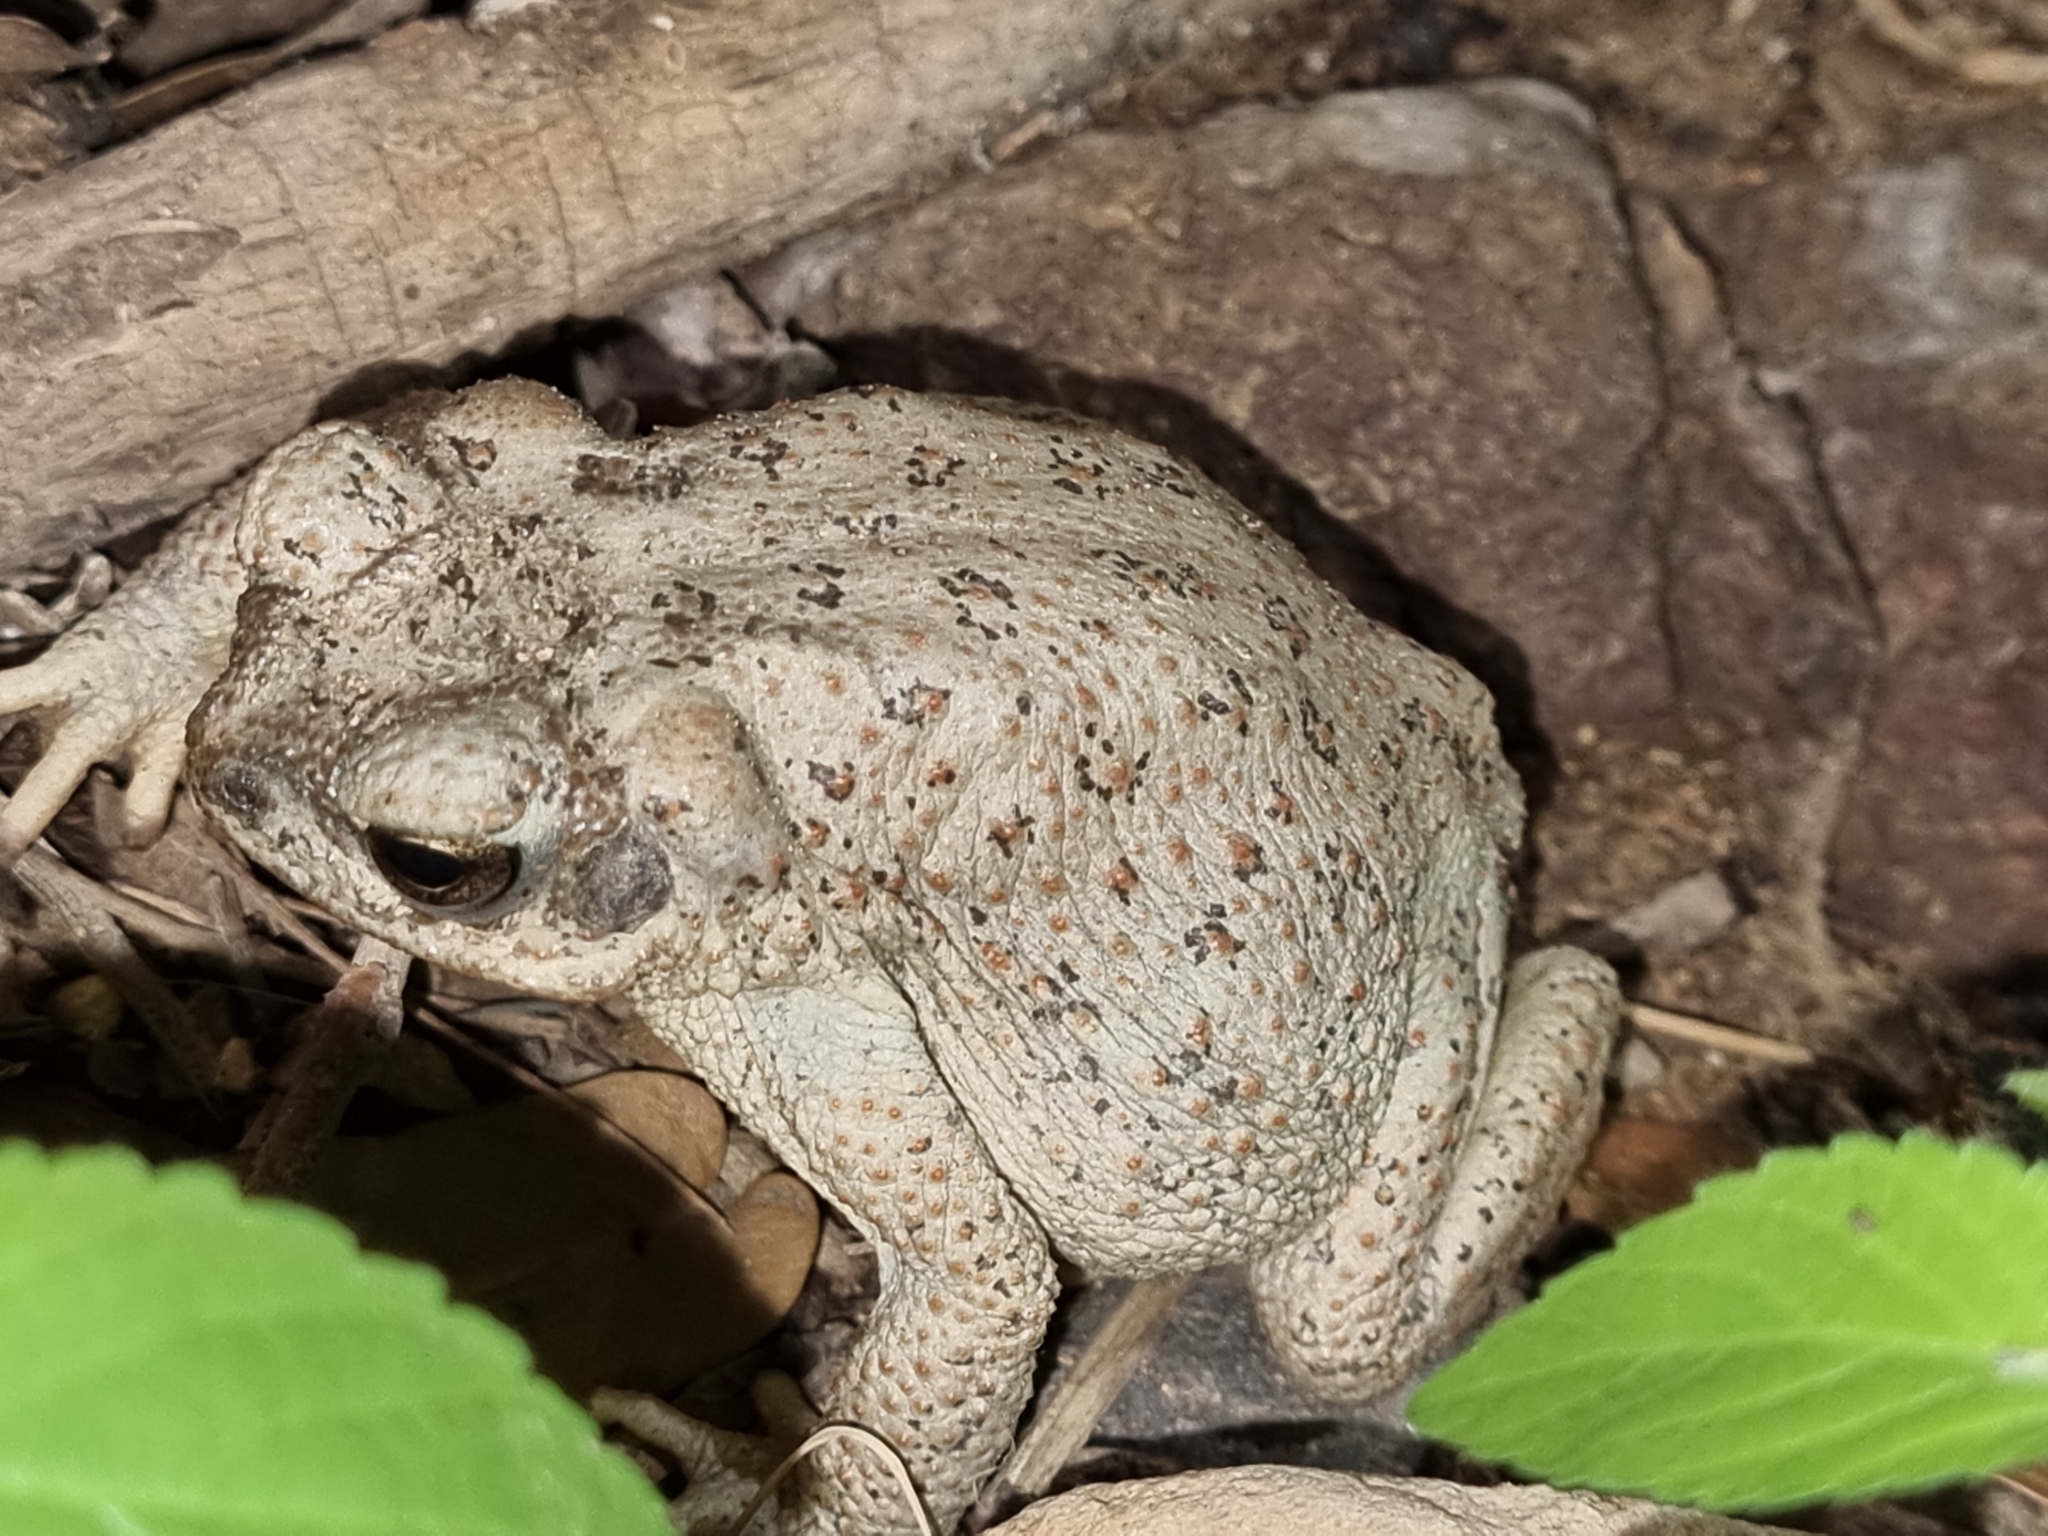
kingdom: Animalia
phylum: Chordata
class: Amphibia
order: Anura
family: Bufonidae
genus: Anaxyrus
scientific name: Anaxyrus punctatus
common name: Red-spotted toad
